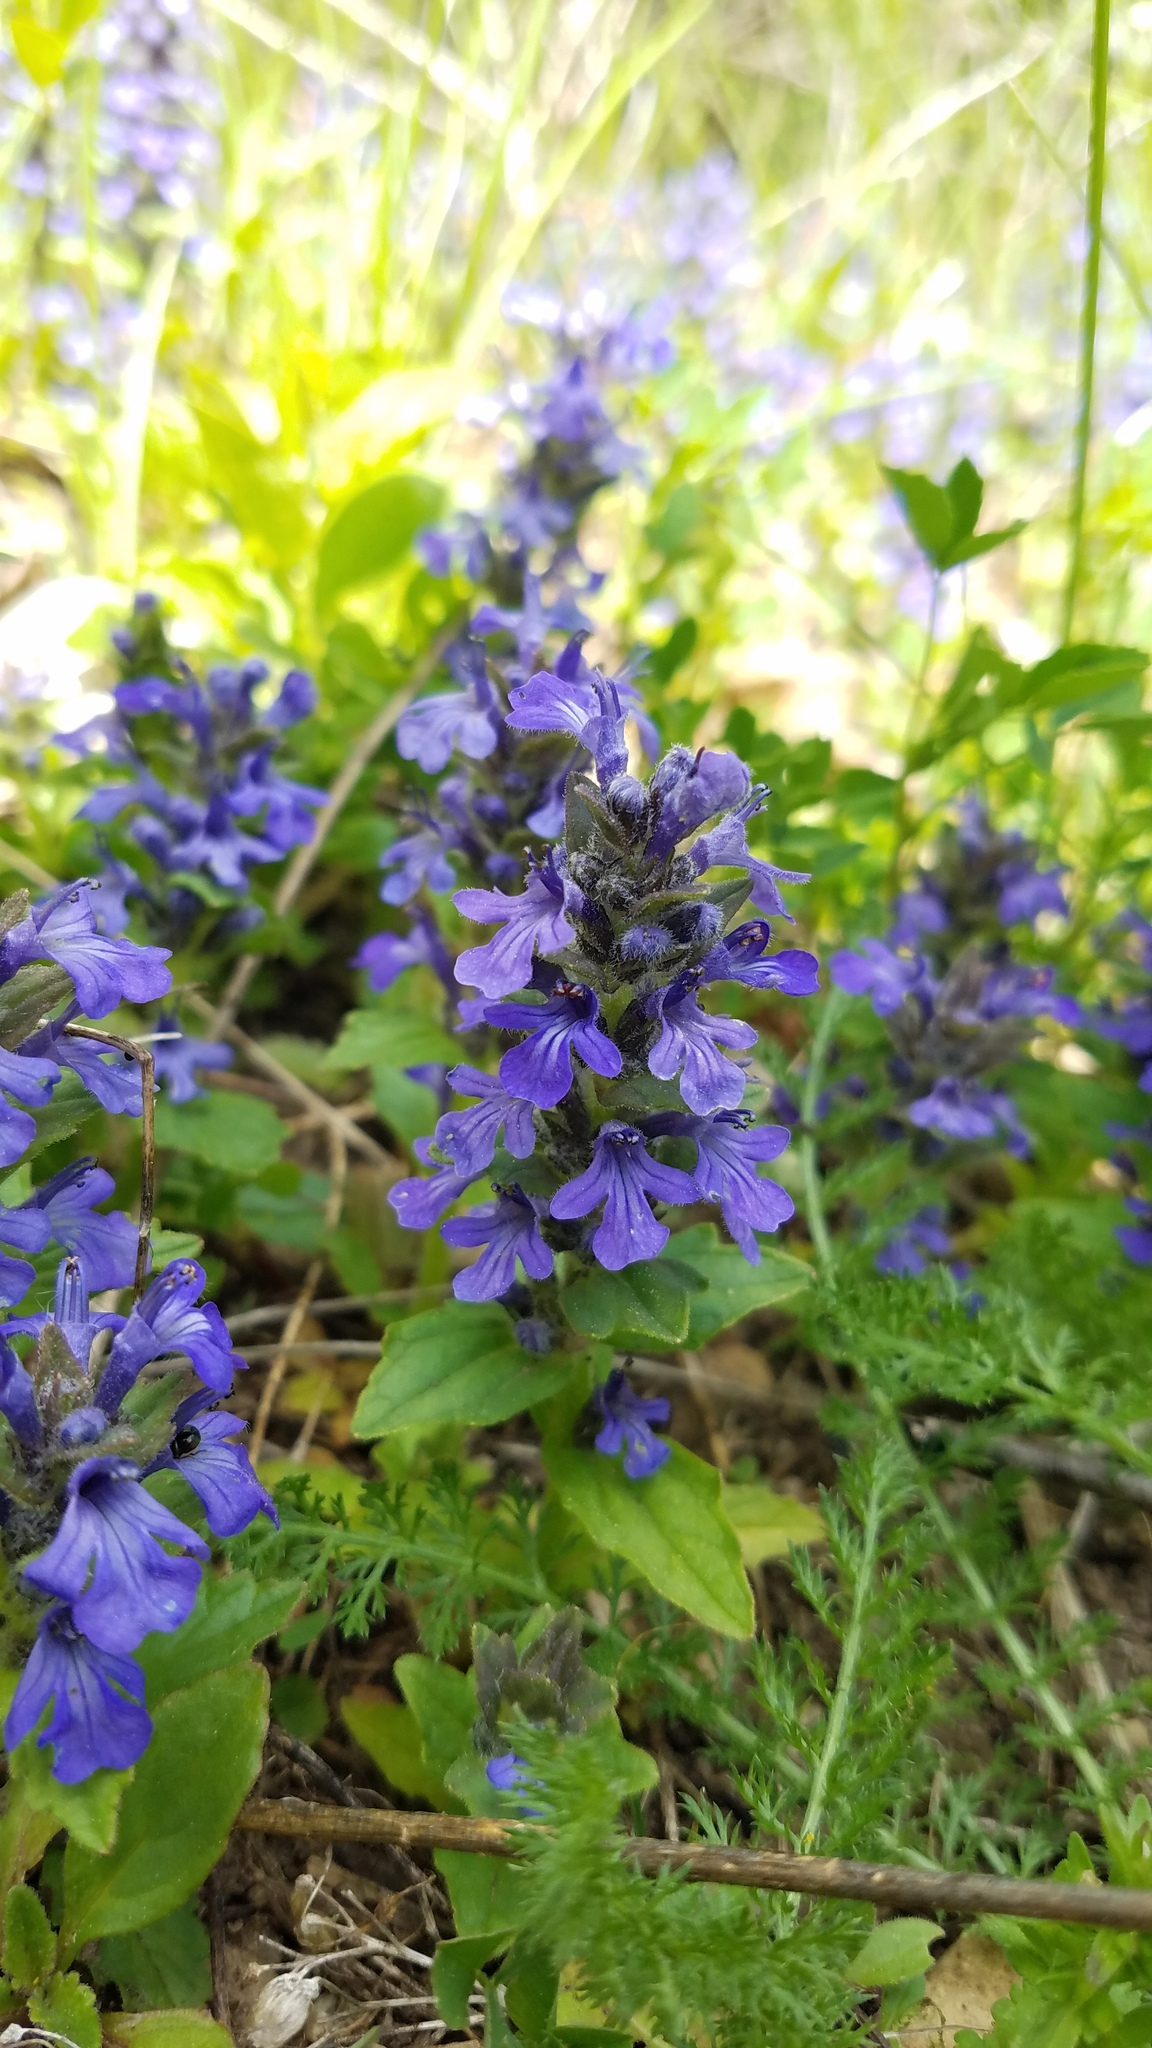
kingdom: Plantae
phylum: Tracheophyta
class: Magnoliopsida
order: Lamiales
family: Lamiaceae
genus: Ajuga
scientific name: Ajuga genevensis
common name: Blue bugle
